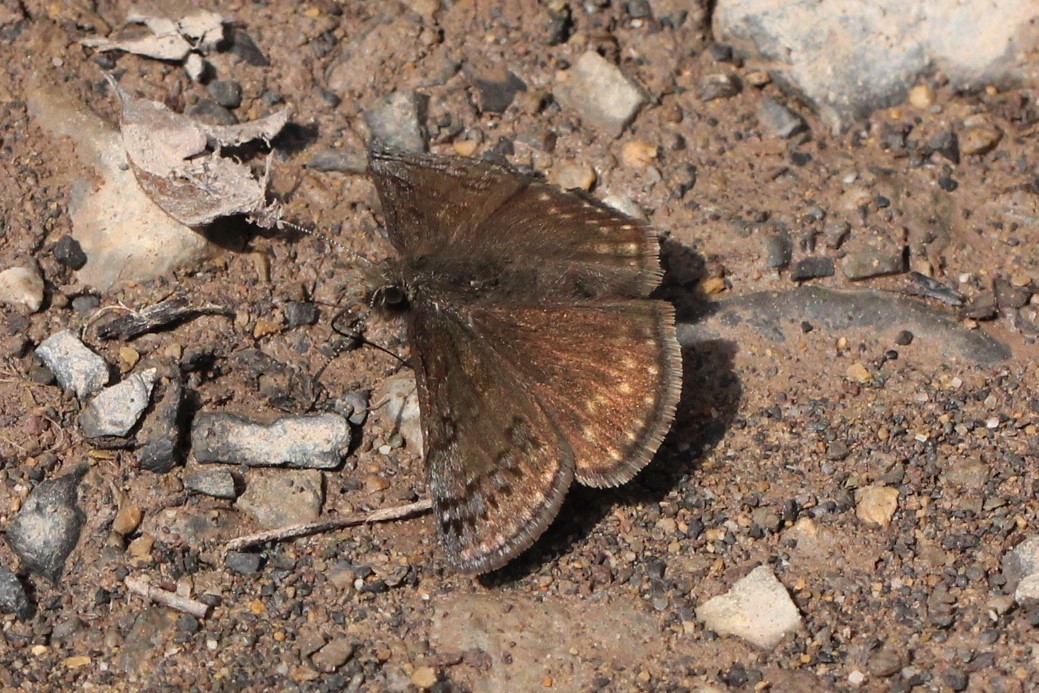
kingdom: Animalia
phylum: Arthropoda
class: Insecta
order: Lepidoptera
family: Hesperiidae
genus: Erynnis
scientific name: Erynnis brizo
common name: Sleepy duskywing
